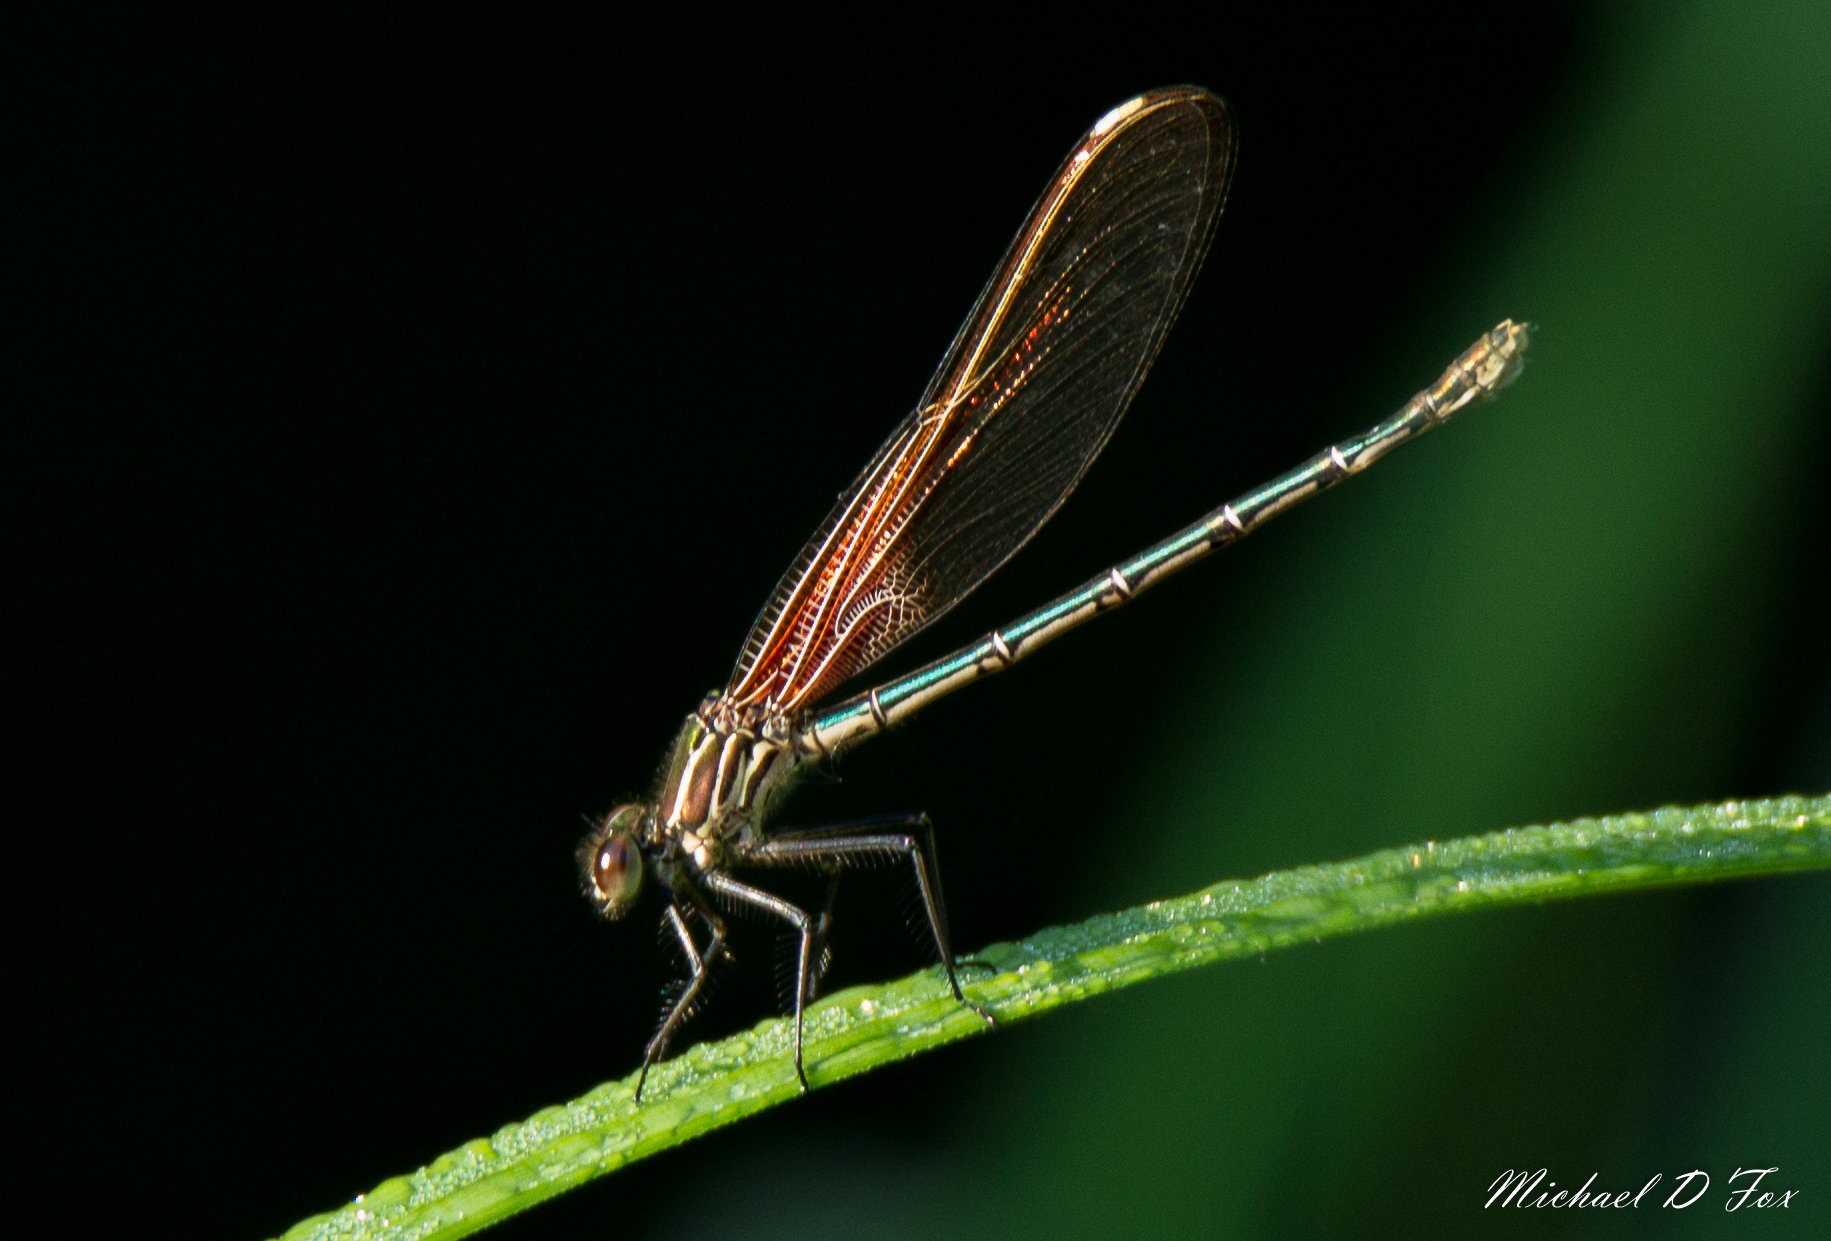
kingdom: Animalia
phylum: Arthropoda
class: Insecta
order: Odonata
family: Calopterygidae
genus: Hetaerina
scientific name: Hetaerina americana
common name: American rubyspot
